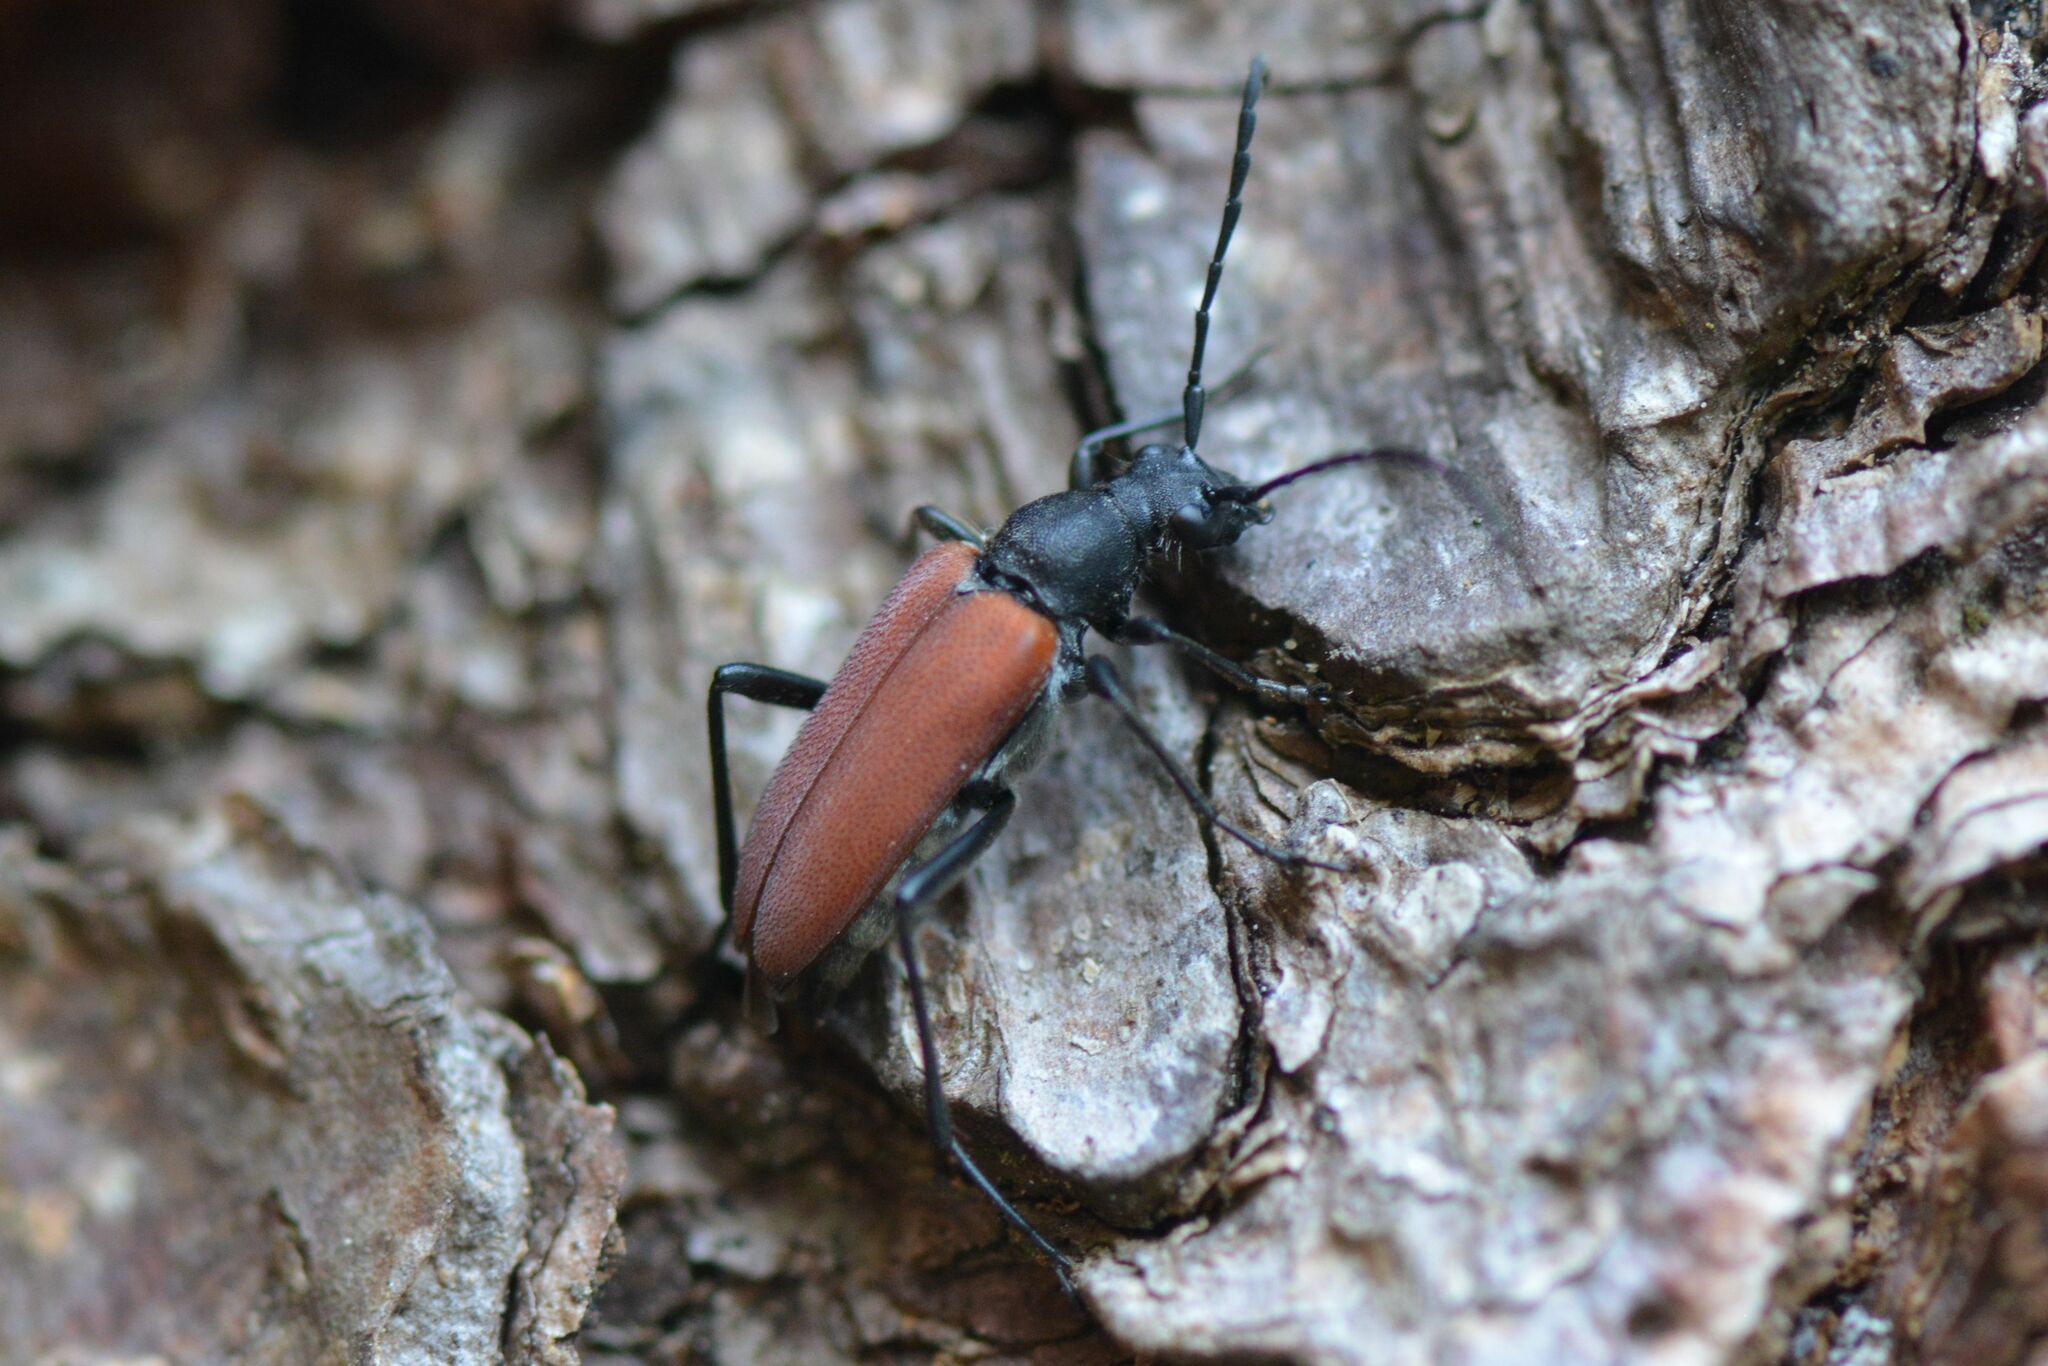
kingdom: Animalia
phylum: Arthropoda
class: Insecta
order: Coleoptera
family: Cerambycidae
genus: Anastrangalia
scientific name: Anastrangalia sanguinolenta
